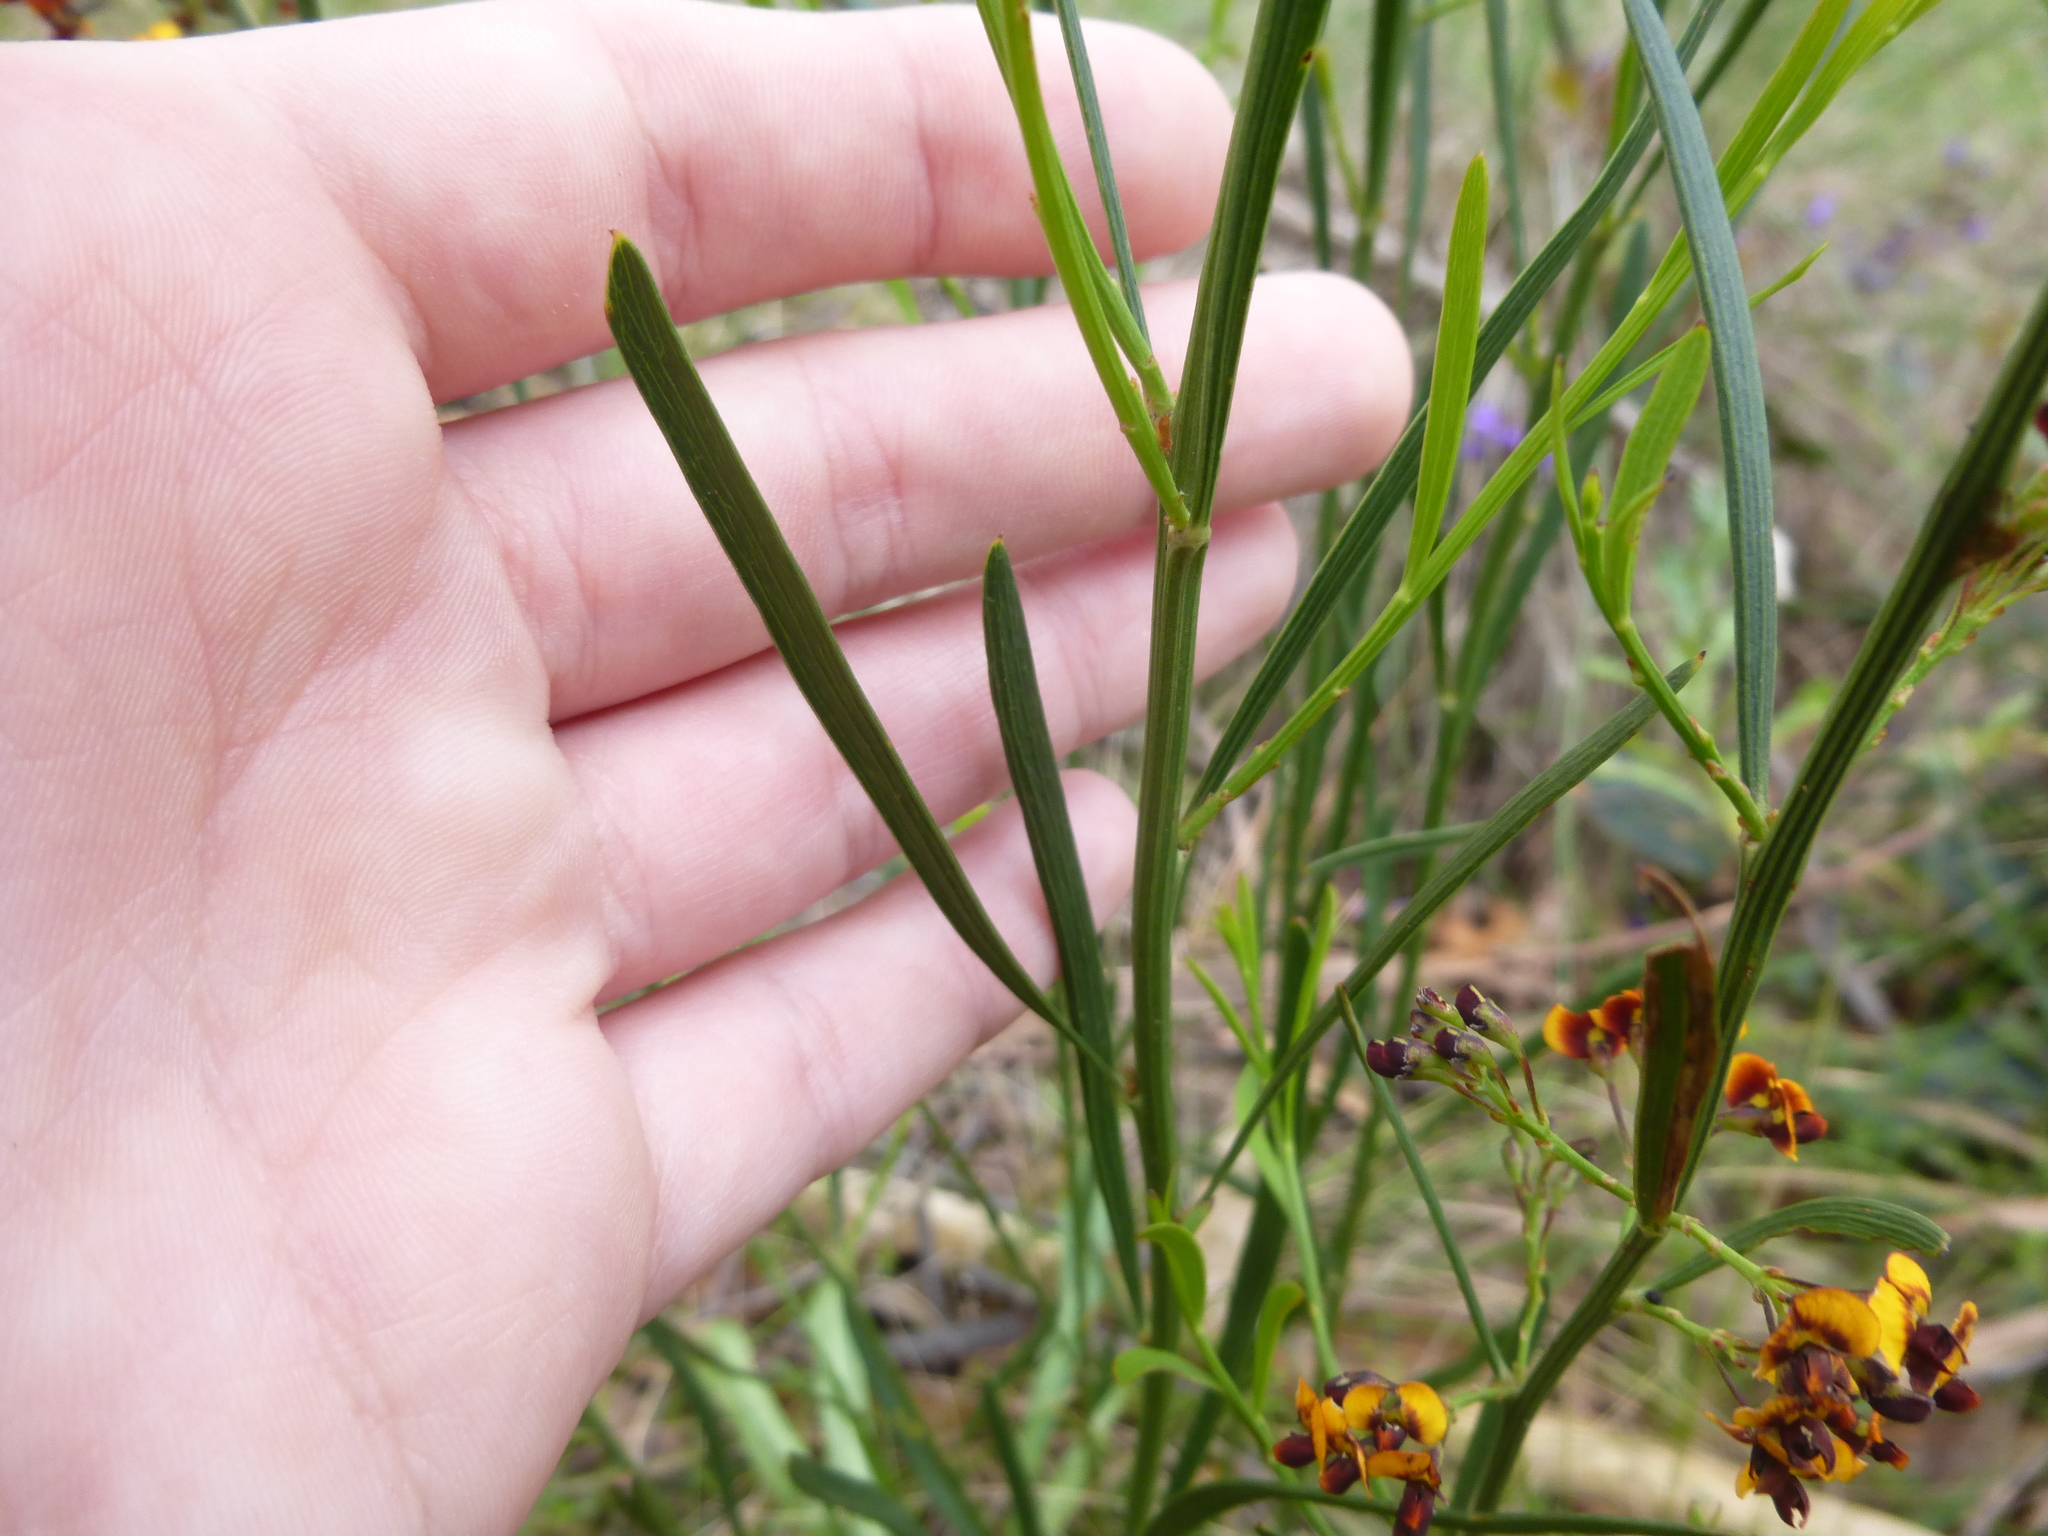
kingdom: Plantae
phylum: Tracheophyta
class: Magnoliopsida
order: Fabales
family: Fabaceae
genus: Daviesia
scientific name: Daviesia leptophylla
